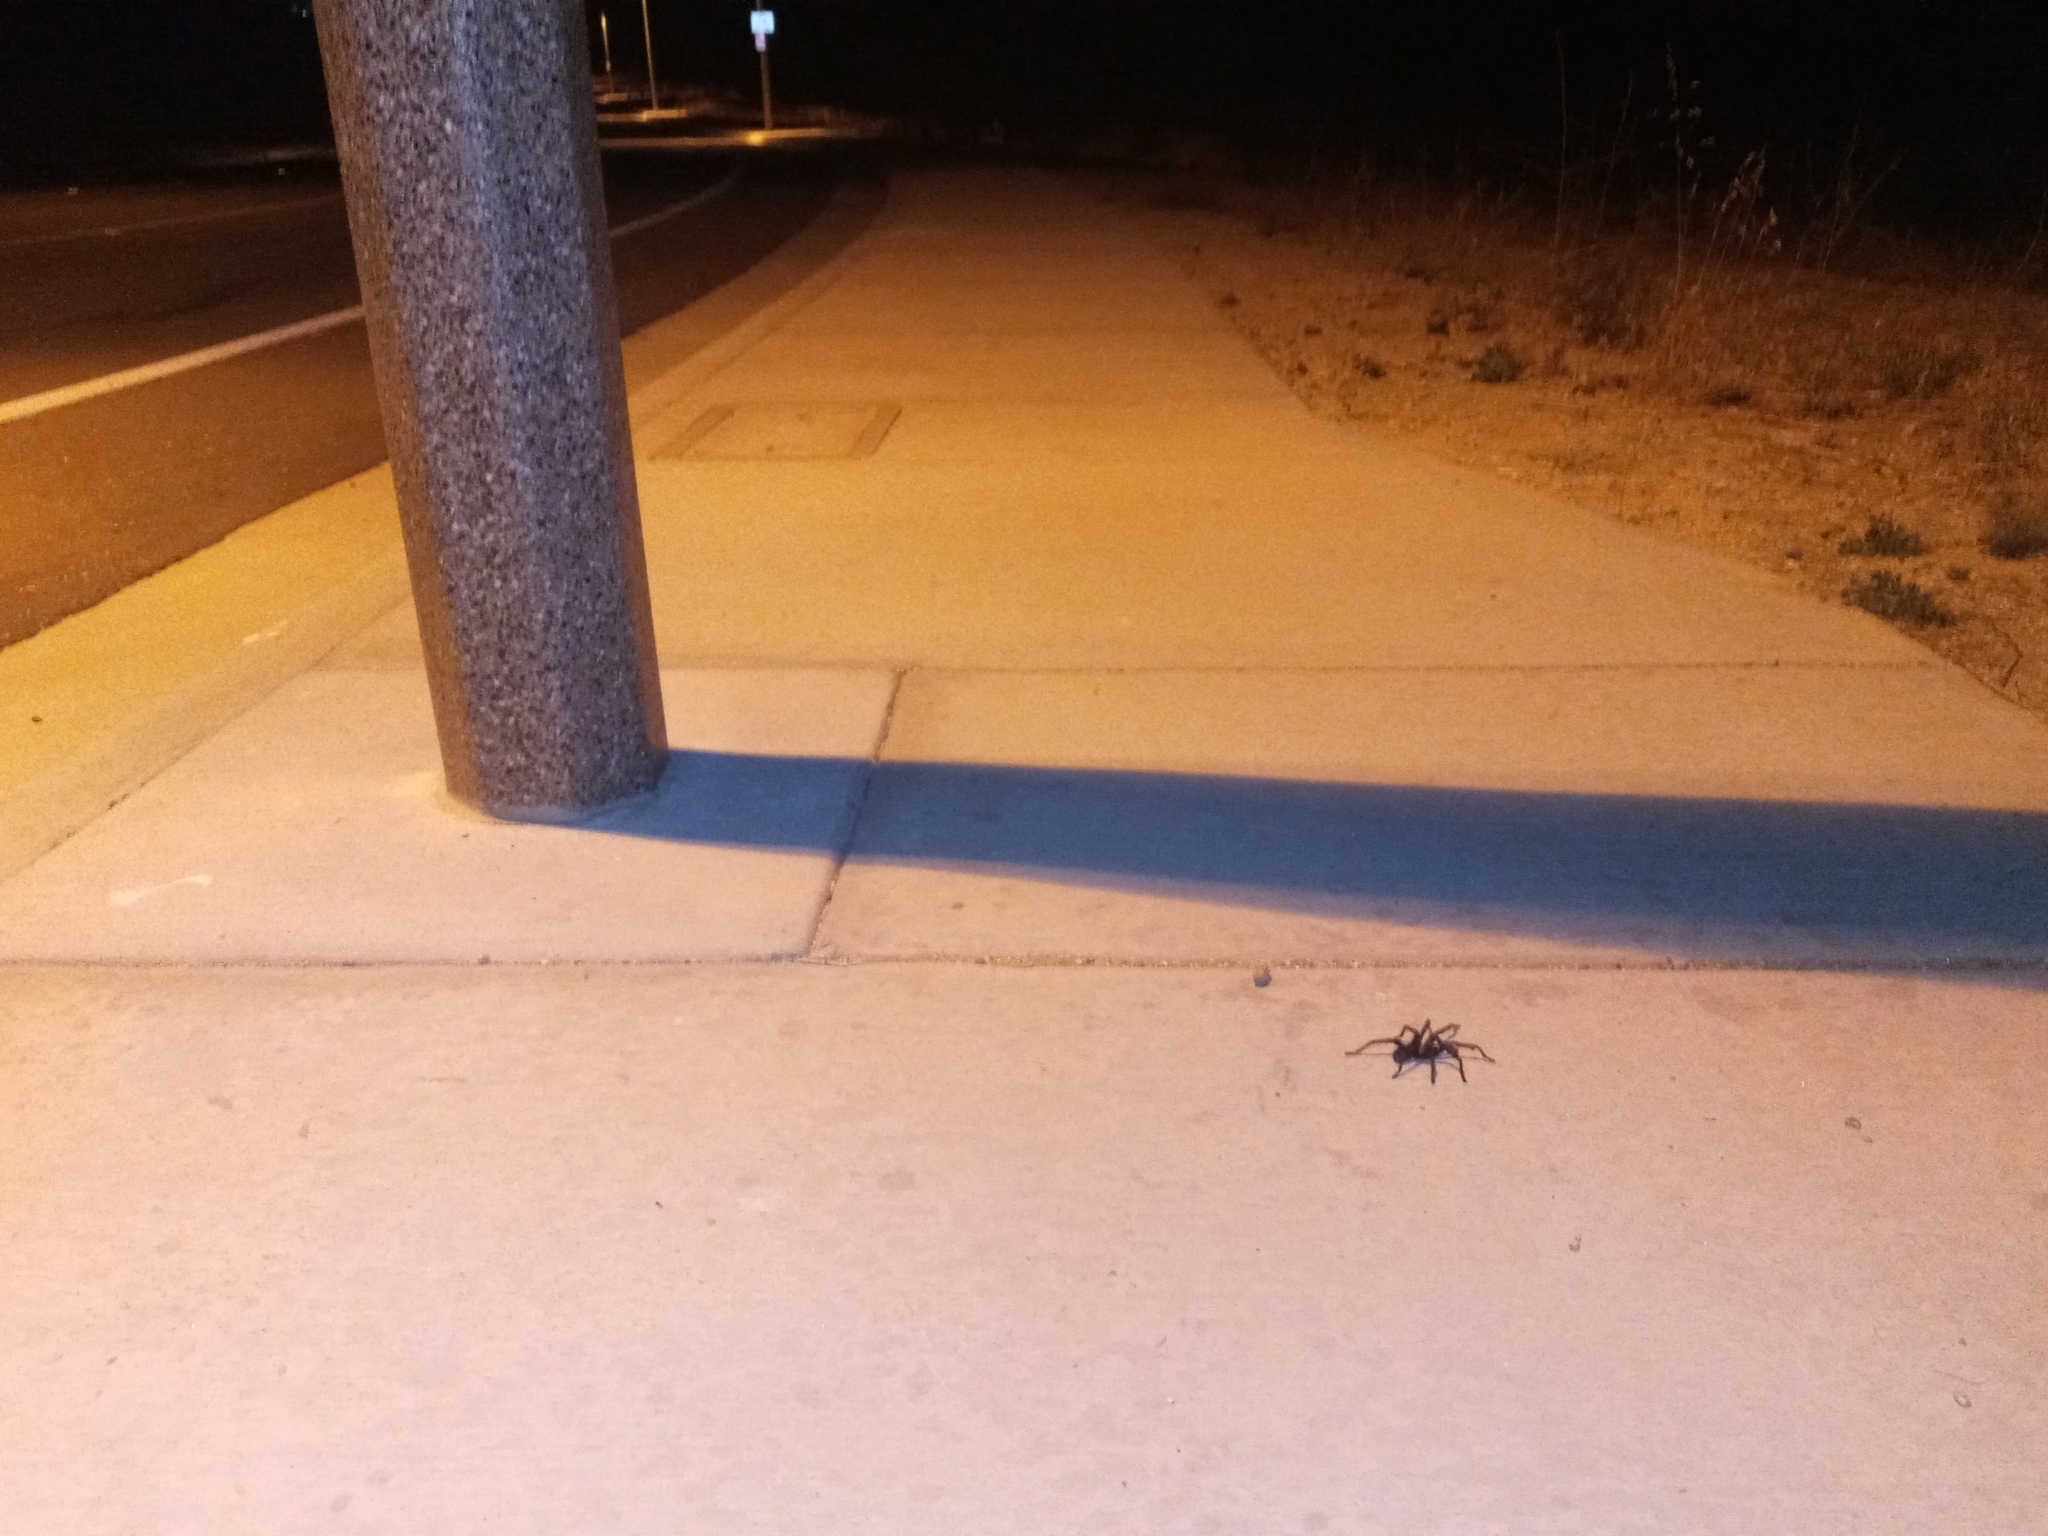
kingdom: Animalia
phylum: Arthropoda
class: Arachnida
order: Araneae
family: Theraphosidae
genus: Aphonopelma
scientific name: Aphonopelma steindachneri
